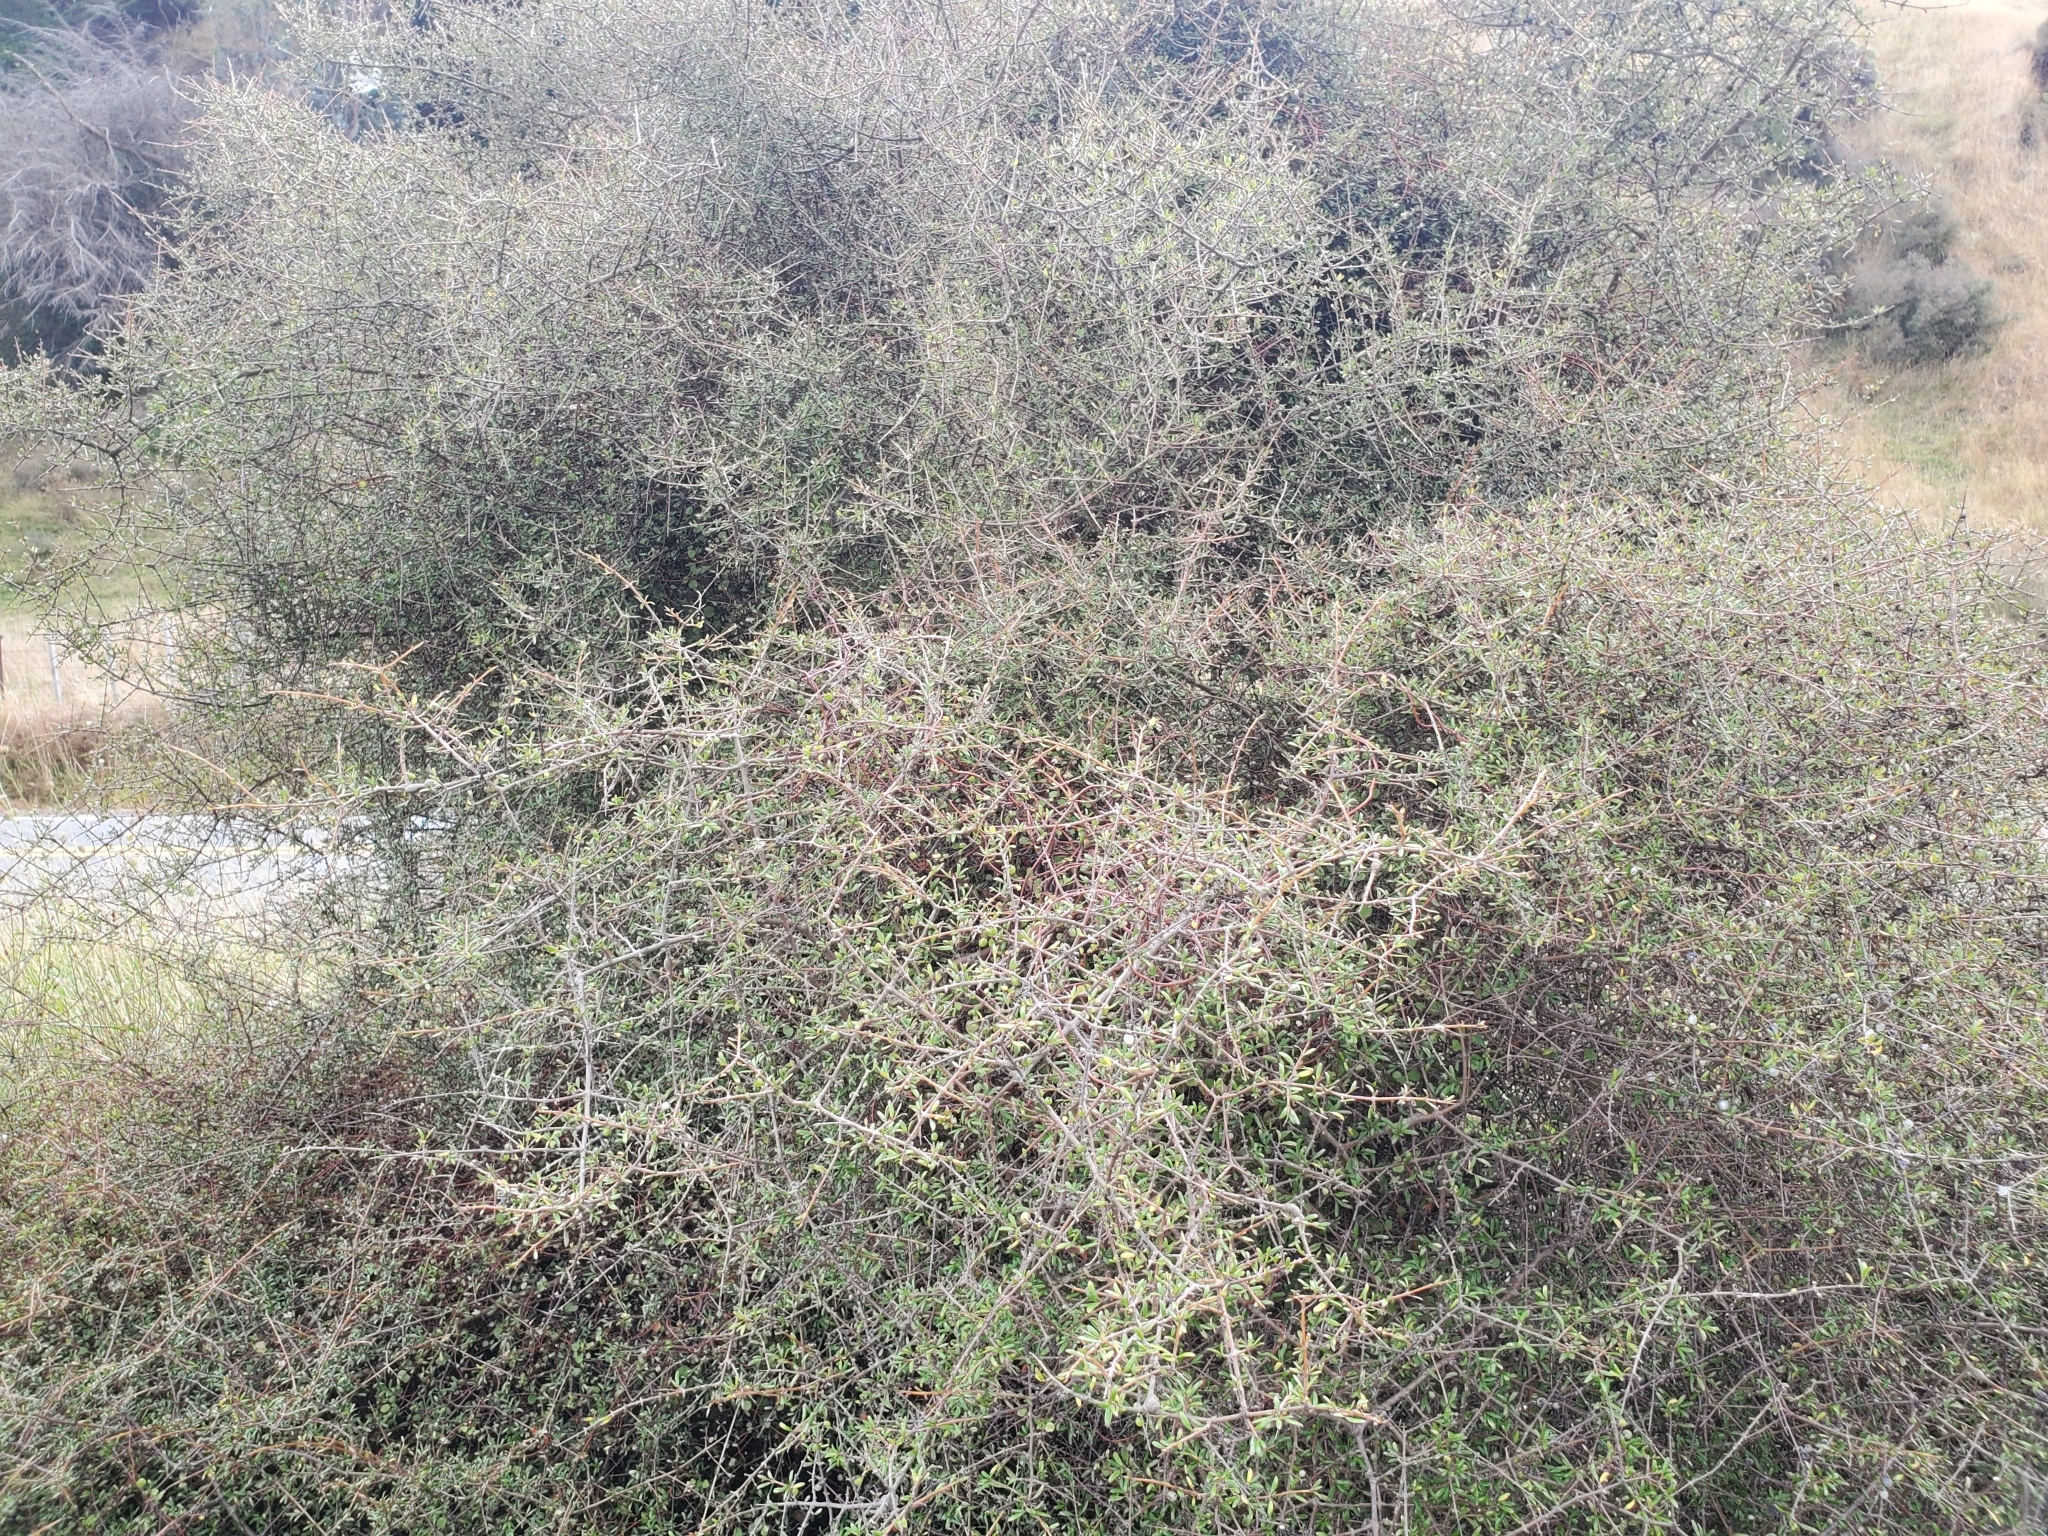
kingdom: Animalia
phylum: Chordata
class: Aves
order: Passeriformes
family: Locustellidae
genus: Poodytes
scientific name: Poodytes punctatus
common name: New zealand fernbird
